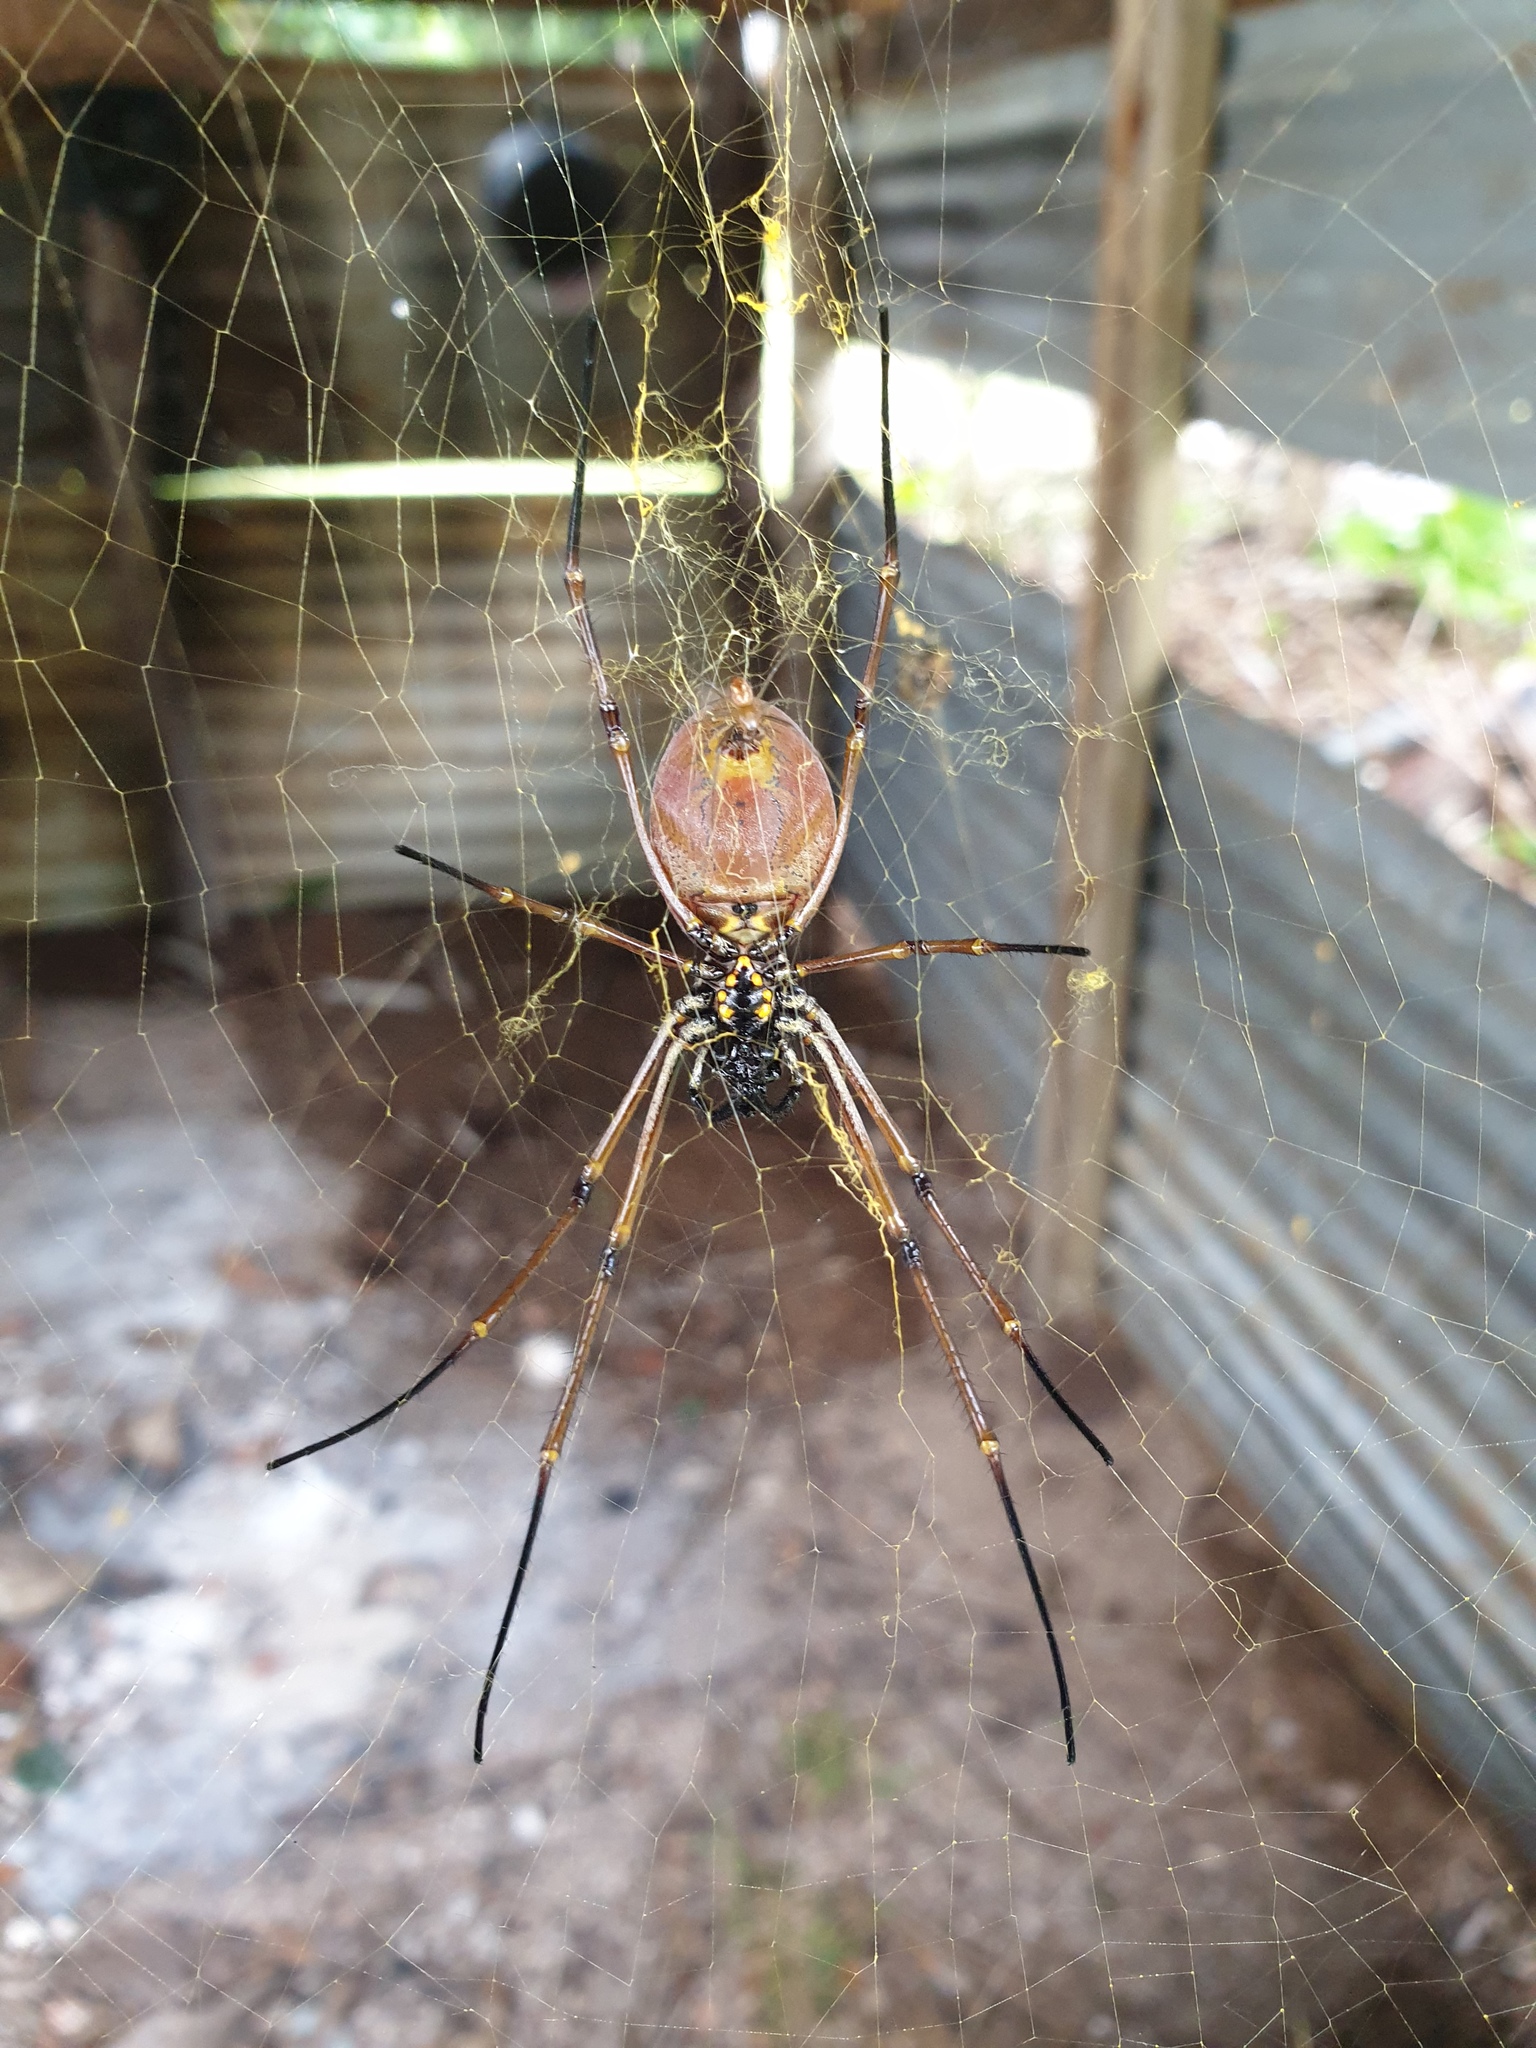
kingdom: Animalia
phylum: Arthropoda
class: Arachnida
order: Araneae
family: Araneidae
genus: Trichonephila
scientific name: Trichonephila plumipes
